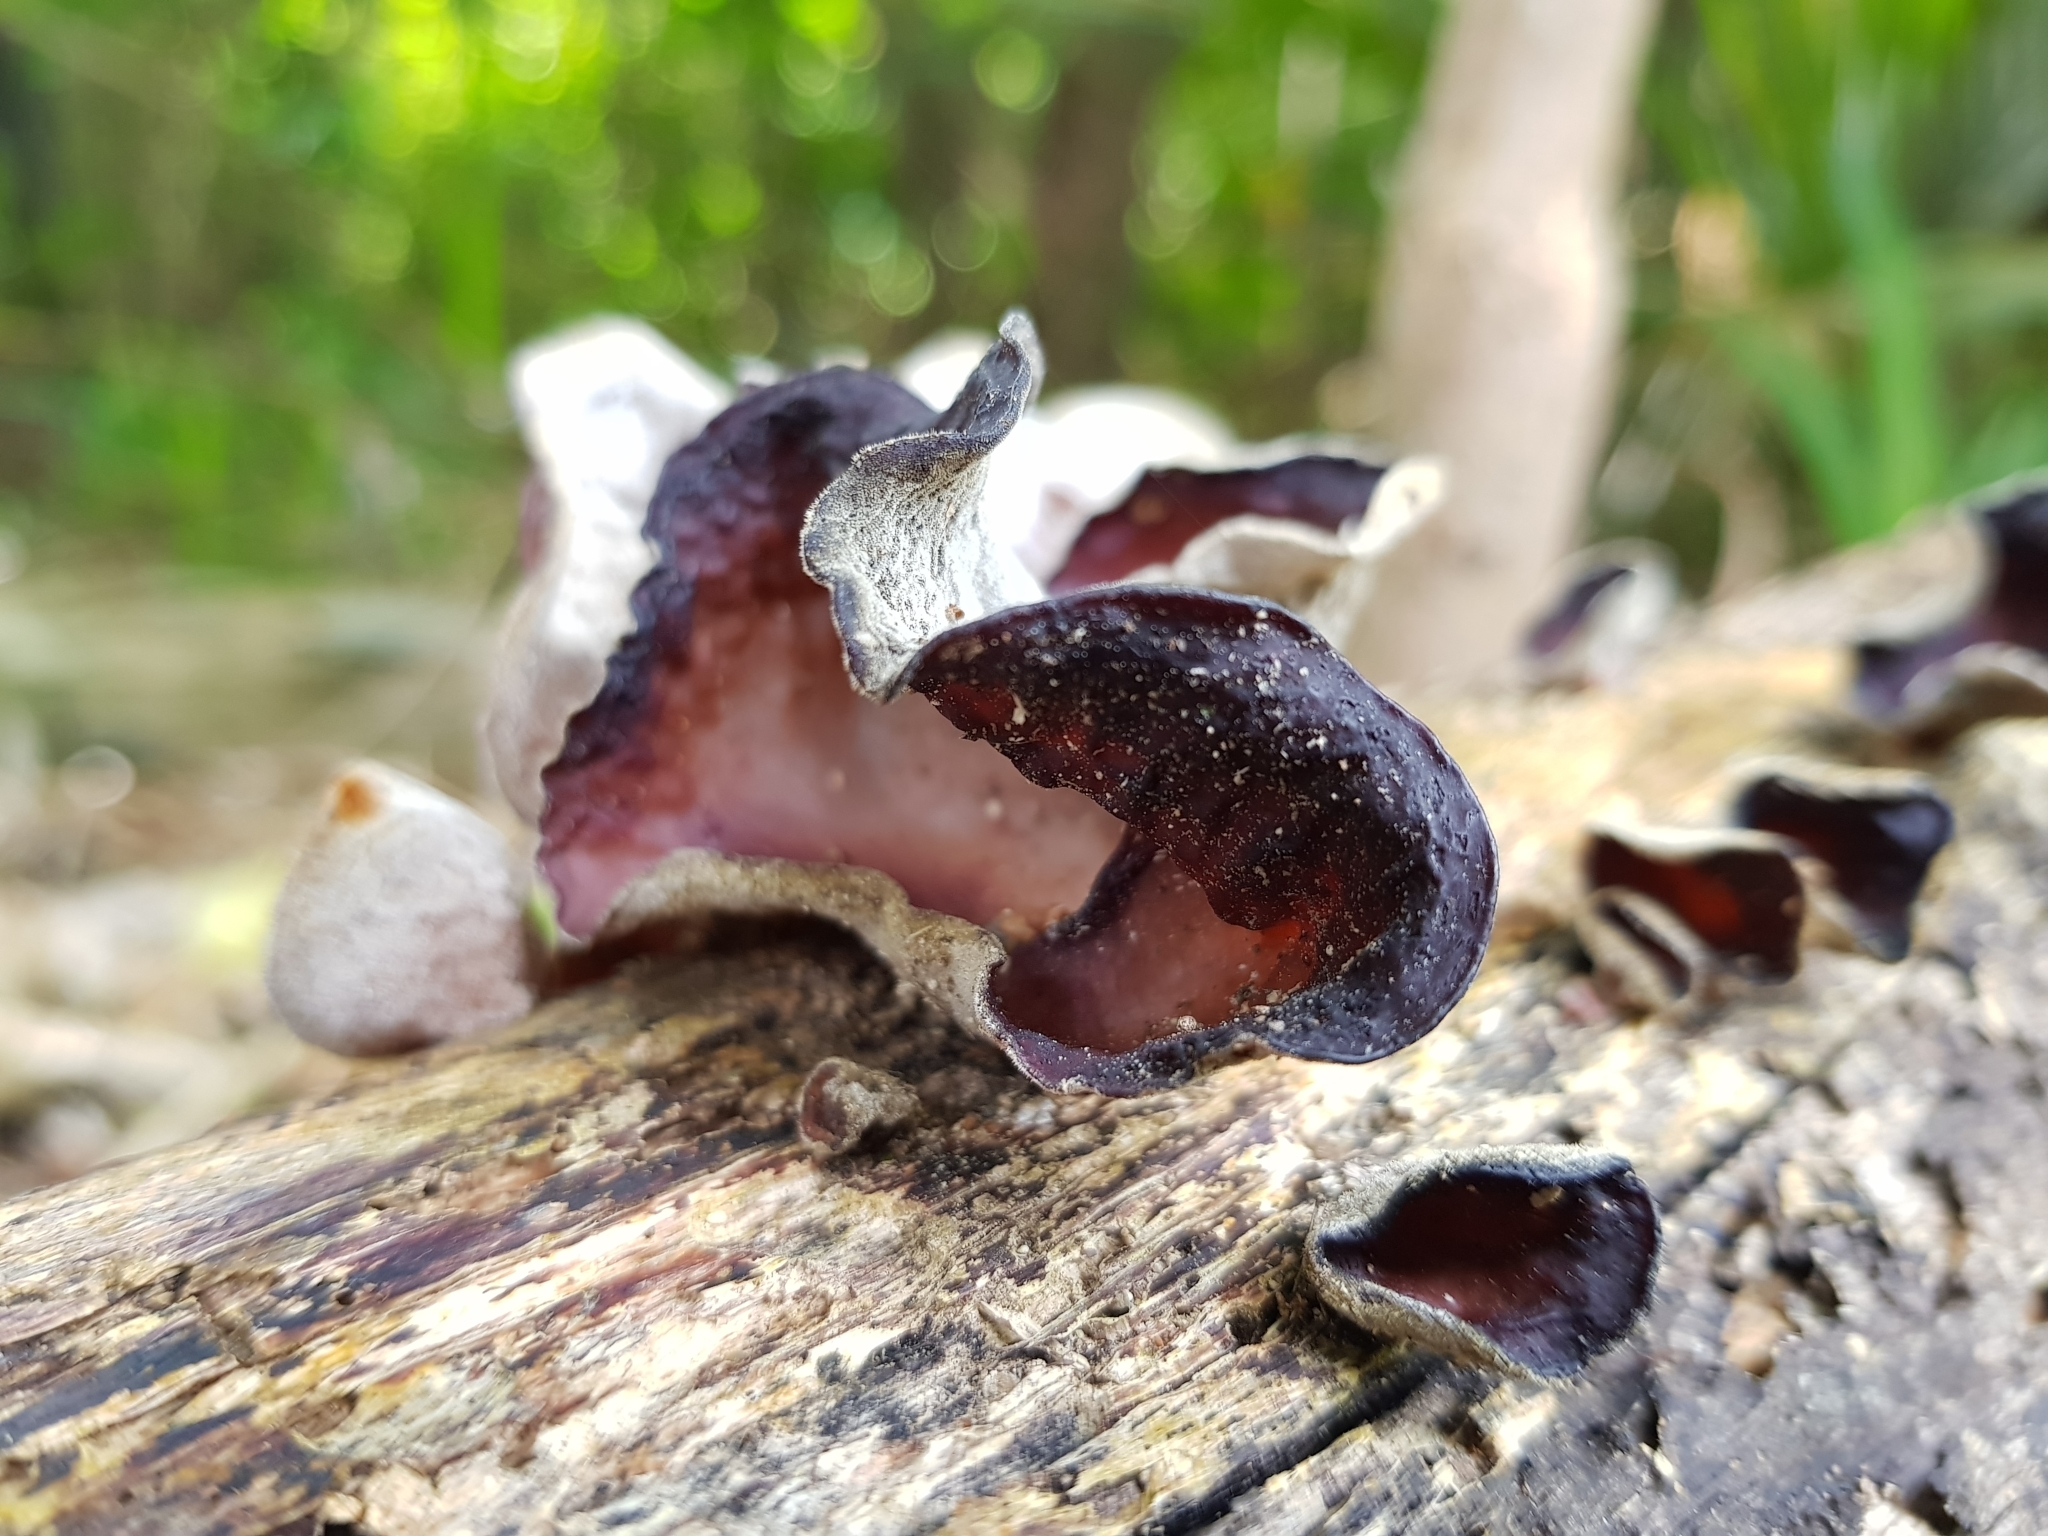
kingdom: Fungi
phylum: Basidiomycota
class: Agaricomycetes
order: Auriculariales
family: Auriculariaceae
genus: Auricularia
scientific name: Auricularia cornea
